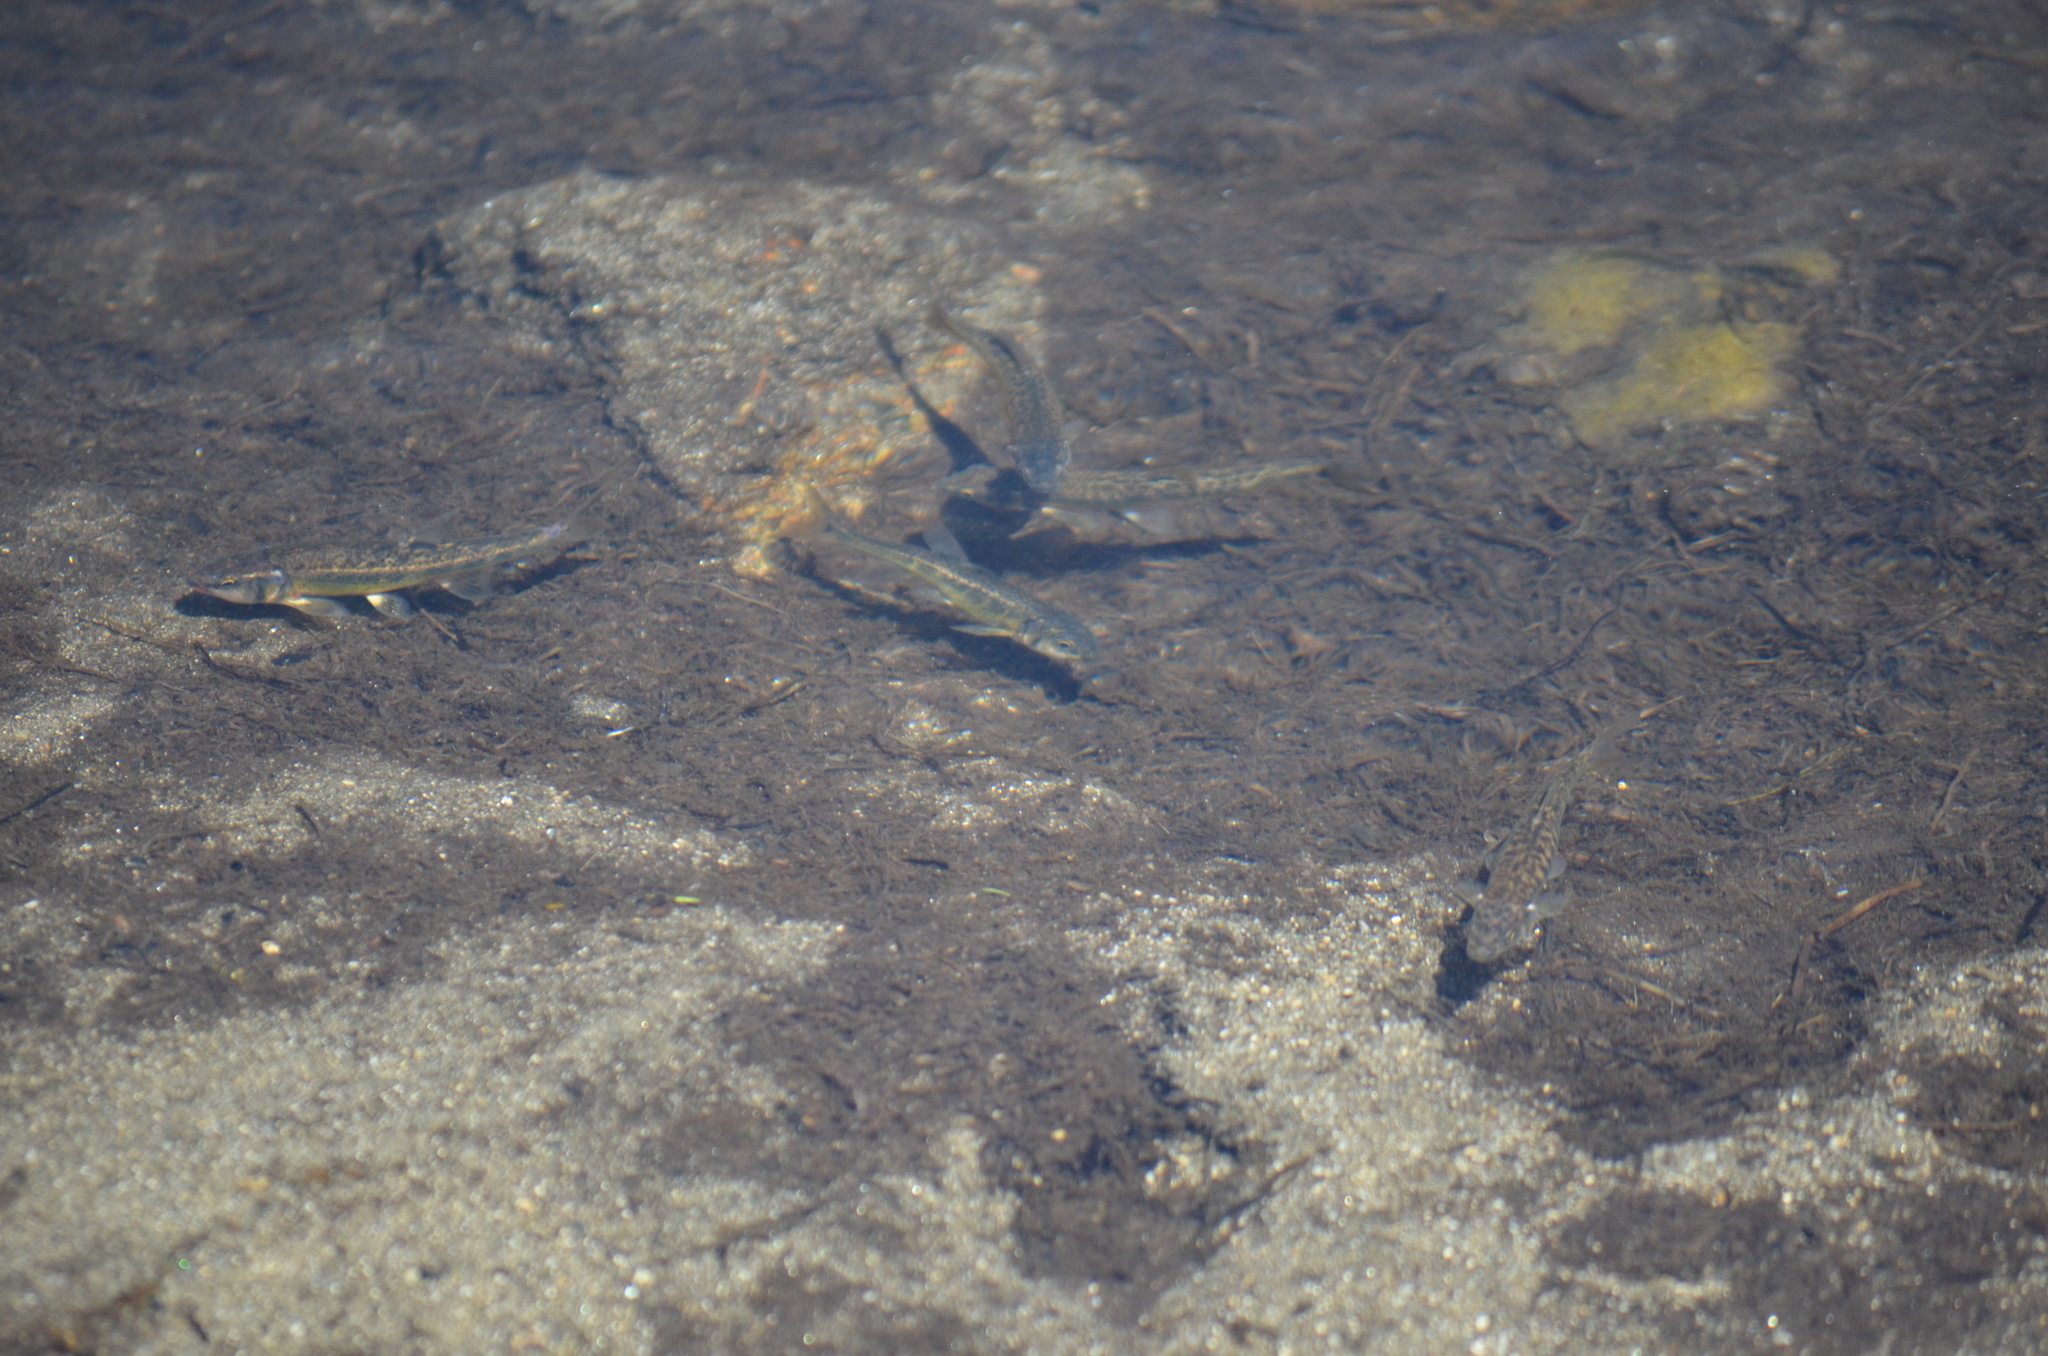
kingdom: Animalia
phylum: Chordata
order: Cypriniformes
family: Cyprinidae
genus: Phoxinus
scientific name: Phoxinus bigerri
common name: Adour minnow
